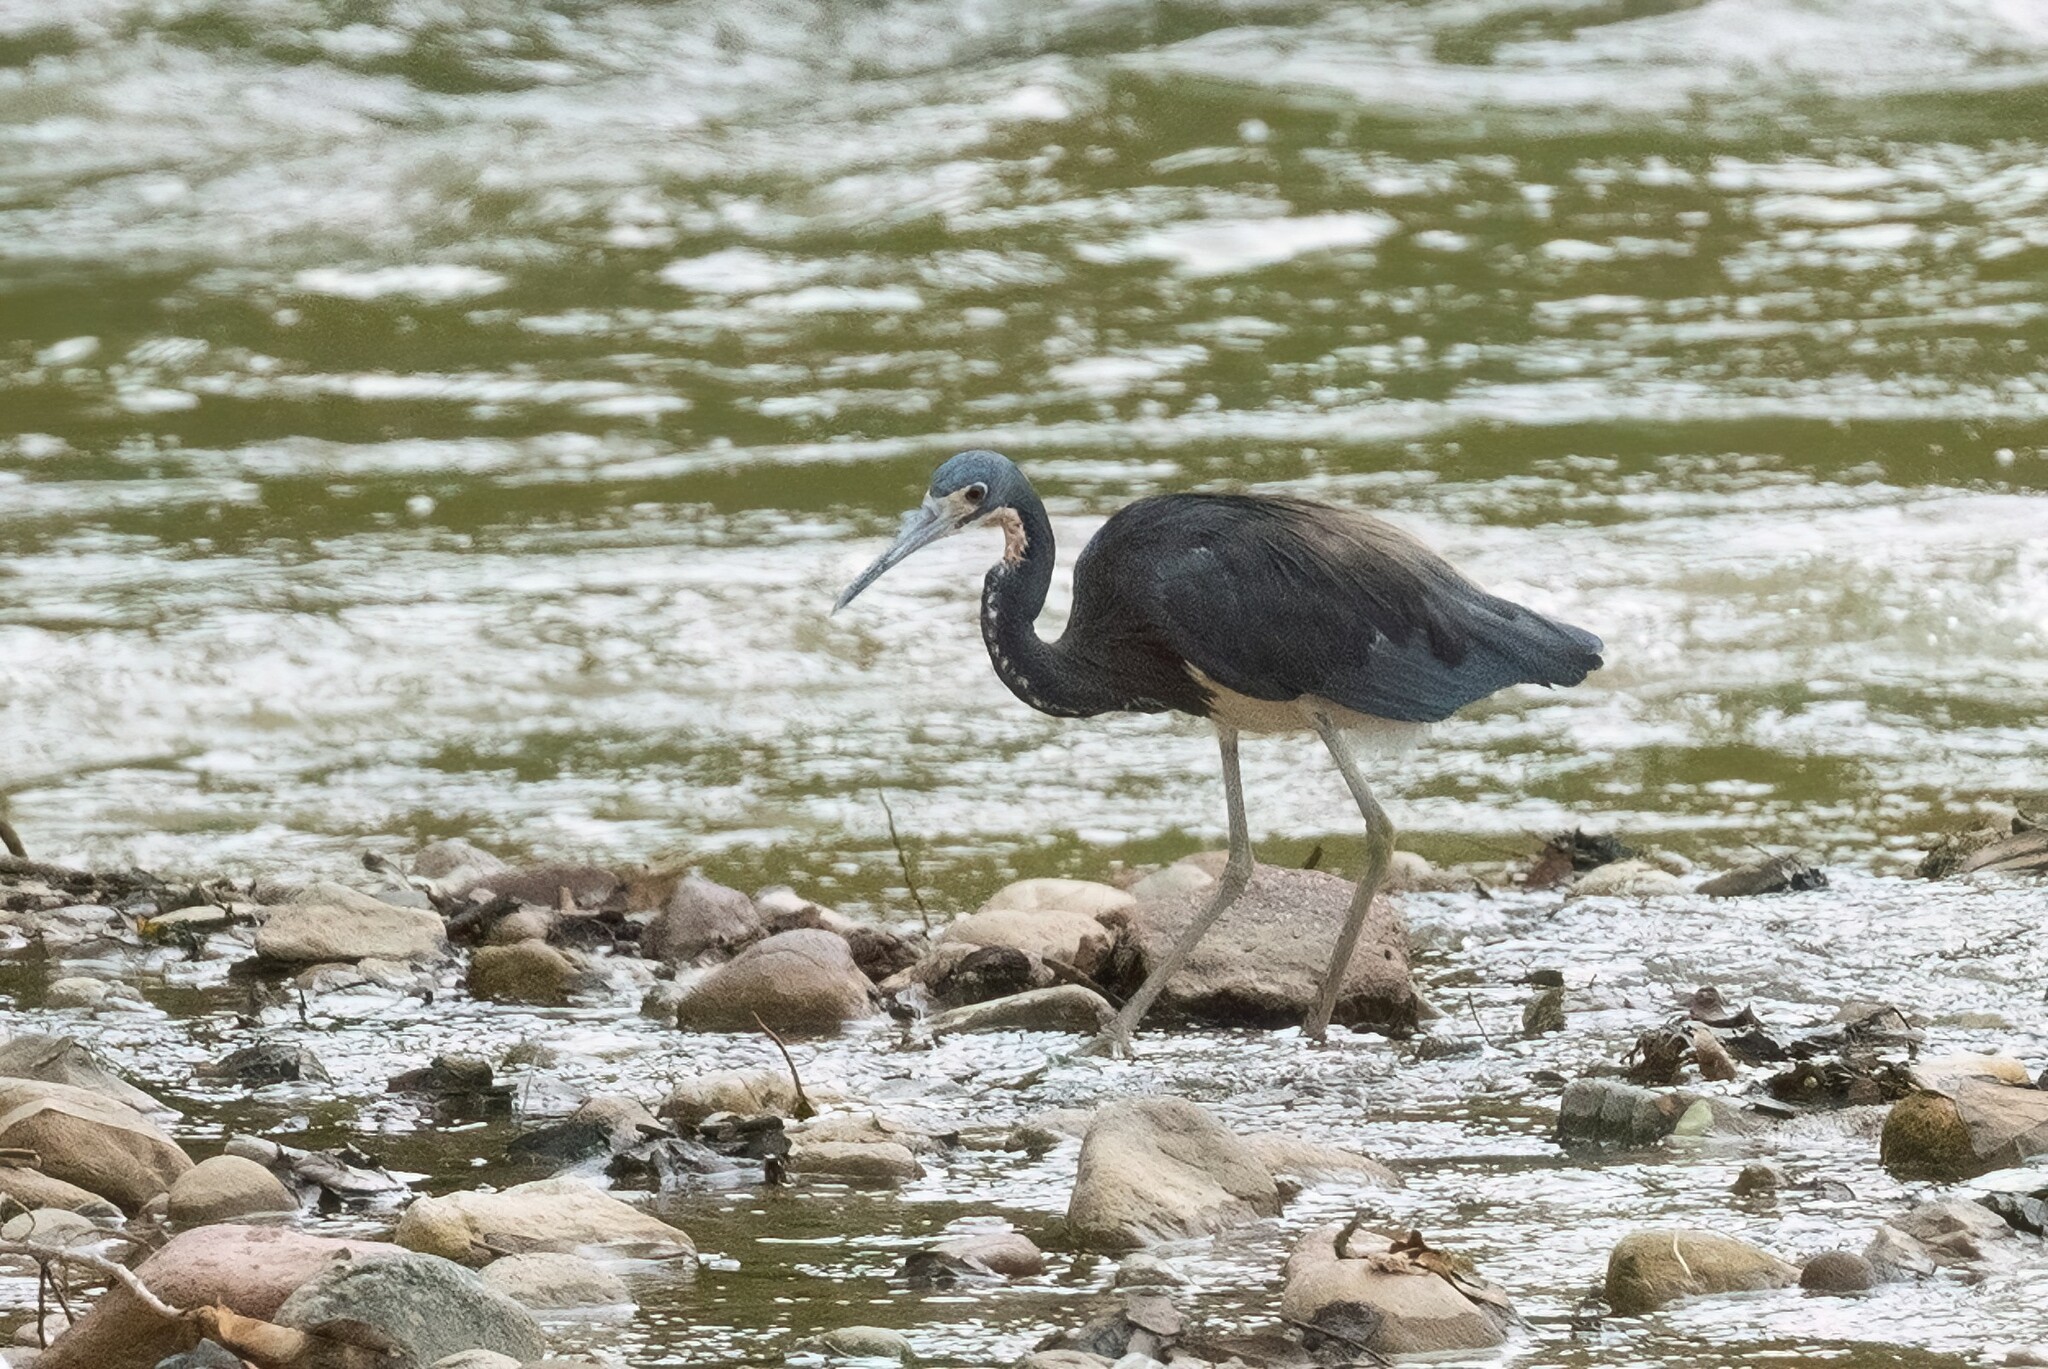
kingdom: Animalia
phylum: Chordata
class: Aves
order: Pelecaniformes
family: Ardeidae
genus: Egretta
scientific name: Egretta tricolor
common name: Tricolored heron
